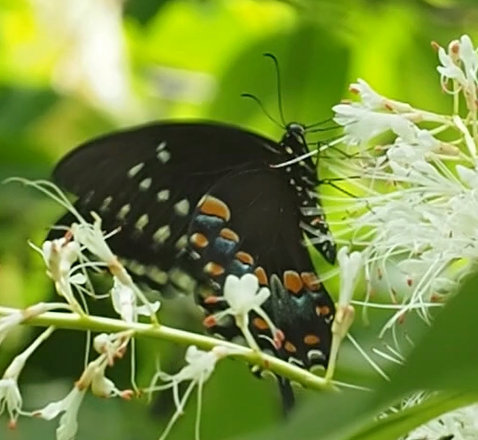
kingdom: Animalia
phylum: Arthropoda
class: Insecta
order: Lepidoptera
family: Papilionidae
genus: Papilio
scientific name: Papilio troilus
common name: Spicebush swallowtail
